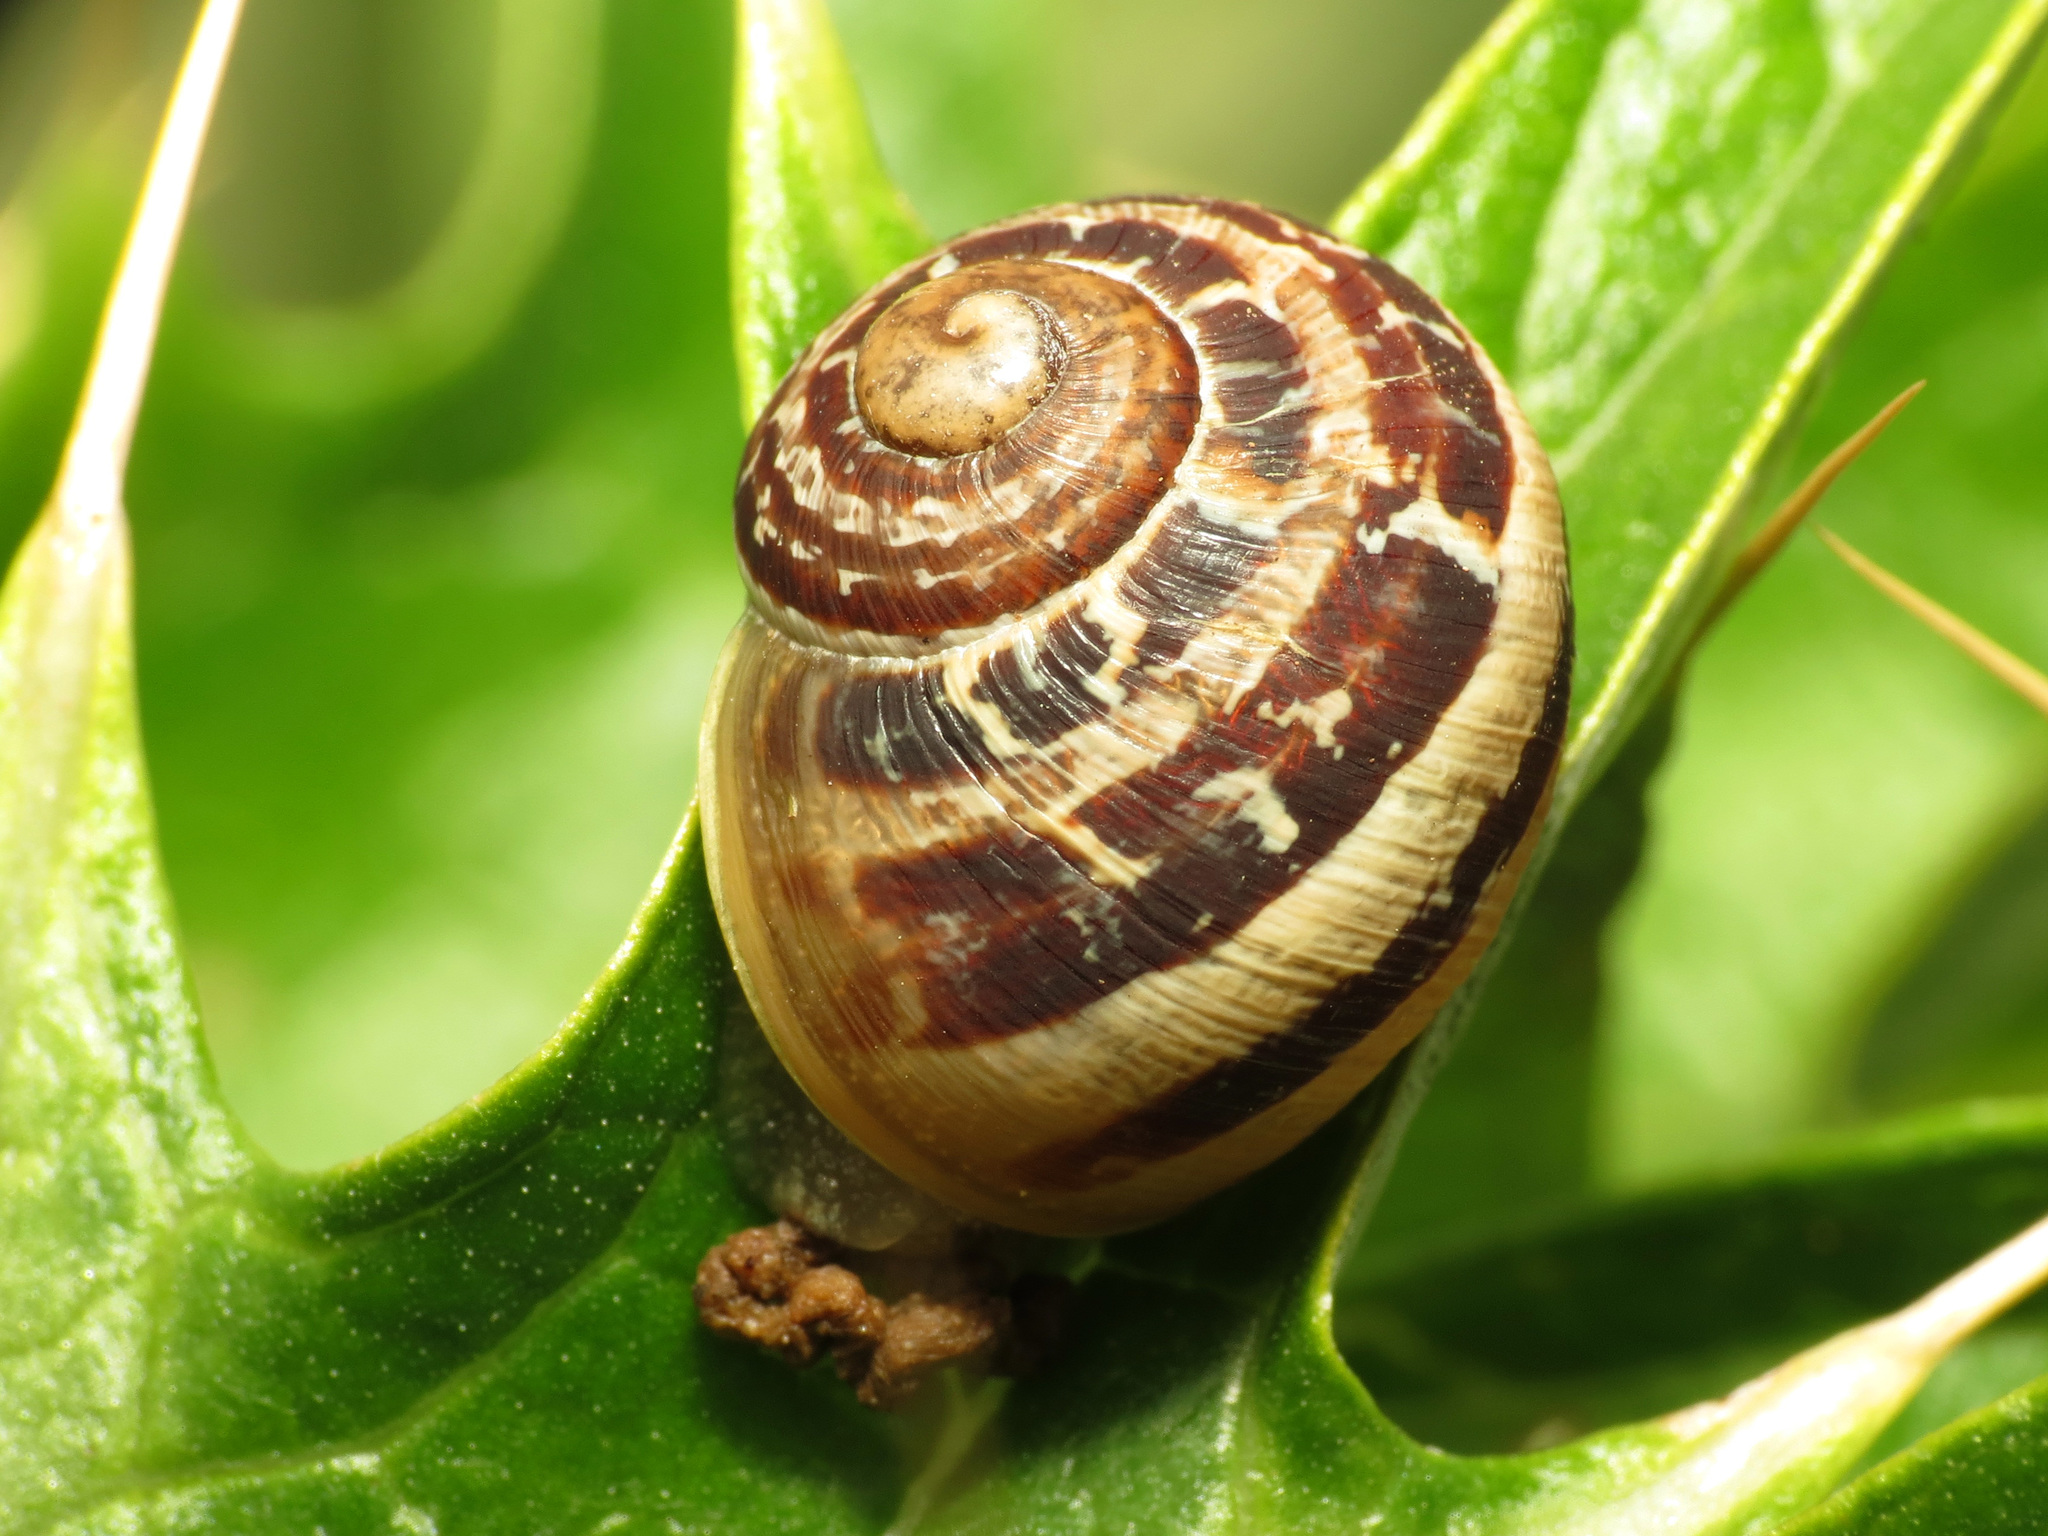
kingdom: Animalia
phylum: Mollusca
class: Gastropoda
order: Stylommatophora
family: Helicidae
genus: Cornu
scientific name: Cornu aspersum
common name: Brown garden snail
